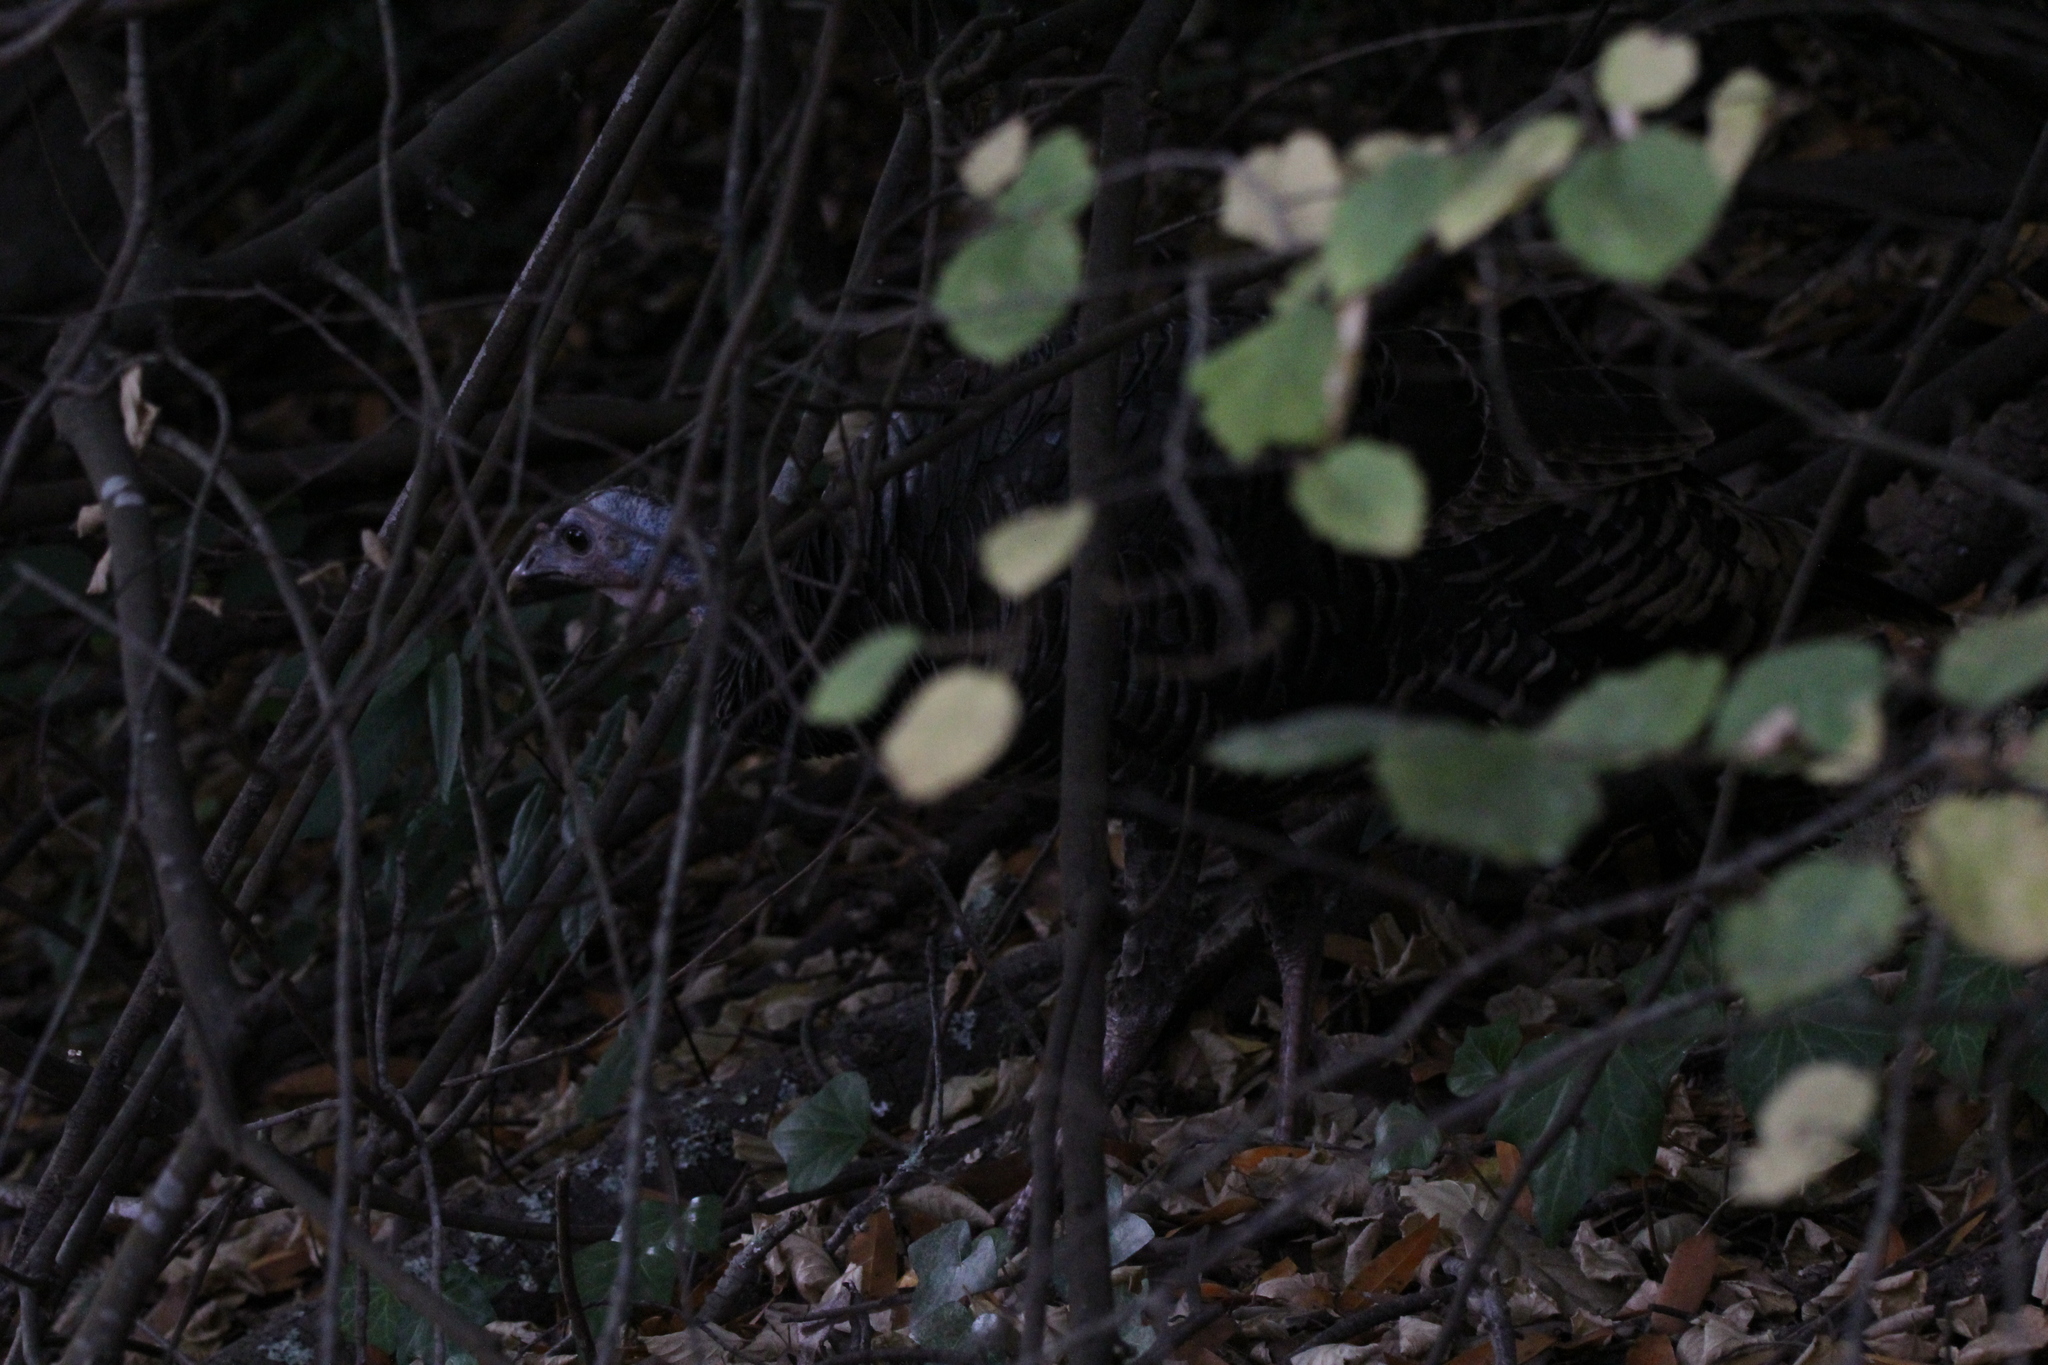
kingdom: Animalia
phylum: Chordata
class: Aves
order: Galliformes
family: Phasianidae
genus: Meleagris
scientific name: Meleagris gallopavo
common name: Wild turkey
